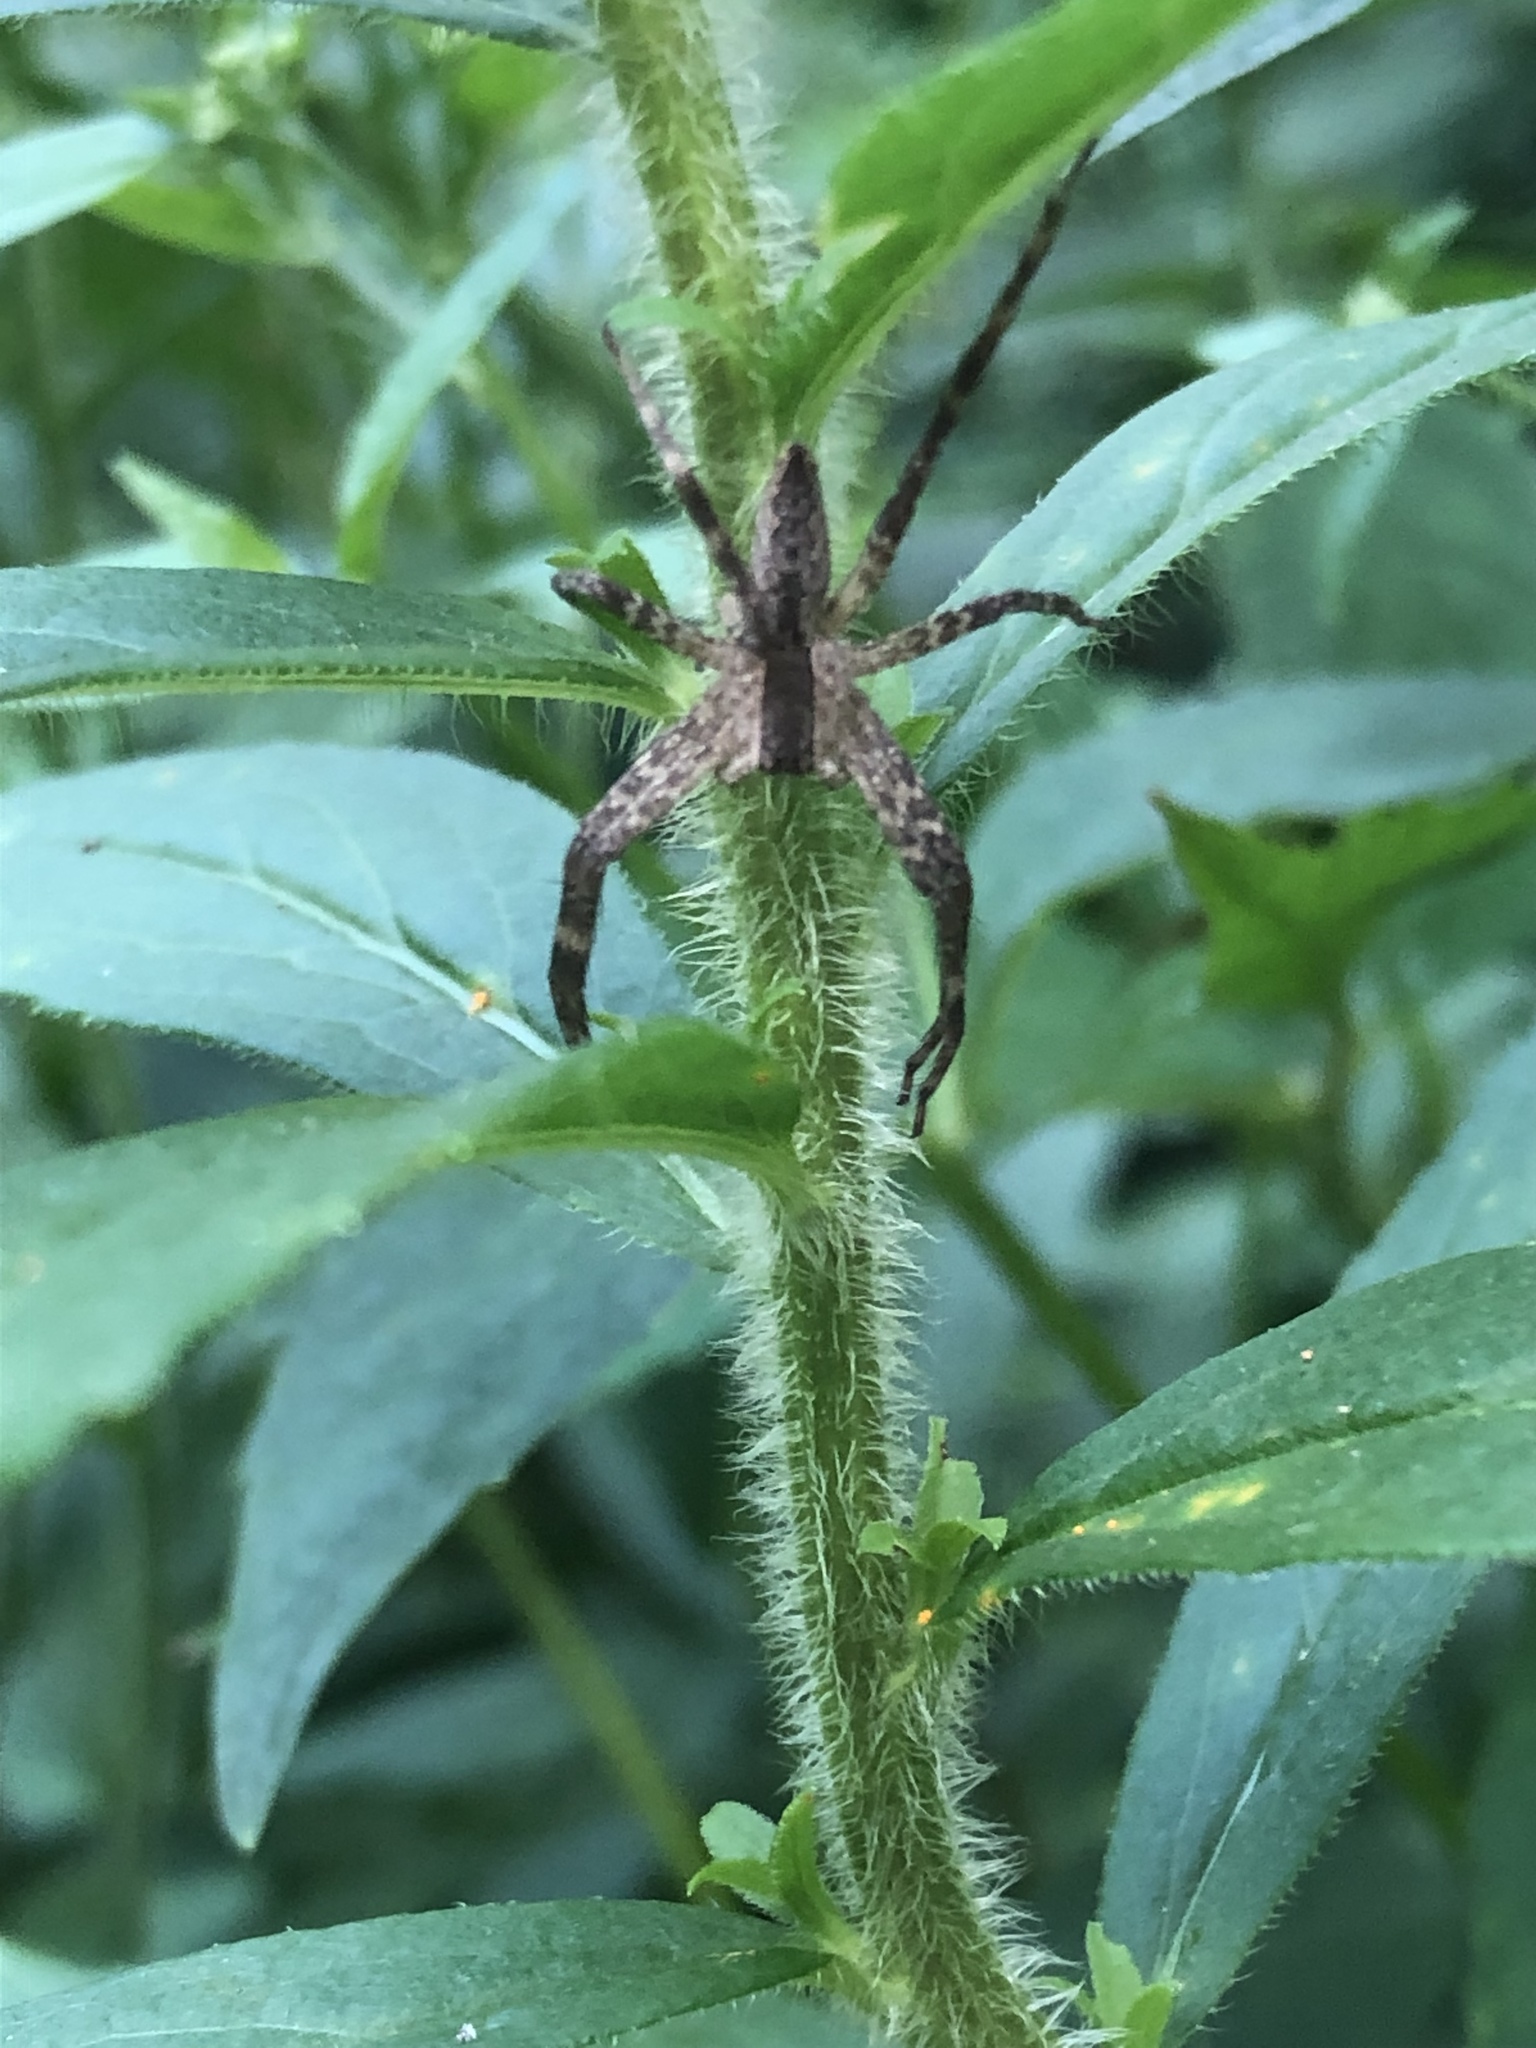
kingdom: Animalia
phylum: Arthropoda
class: Arachnida
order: Araneae
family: Pisauridae
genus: Pisaurina
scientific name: Pisaurina mira
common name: American nursery web spider
